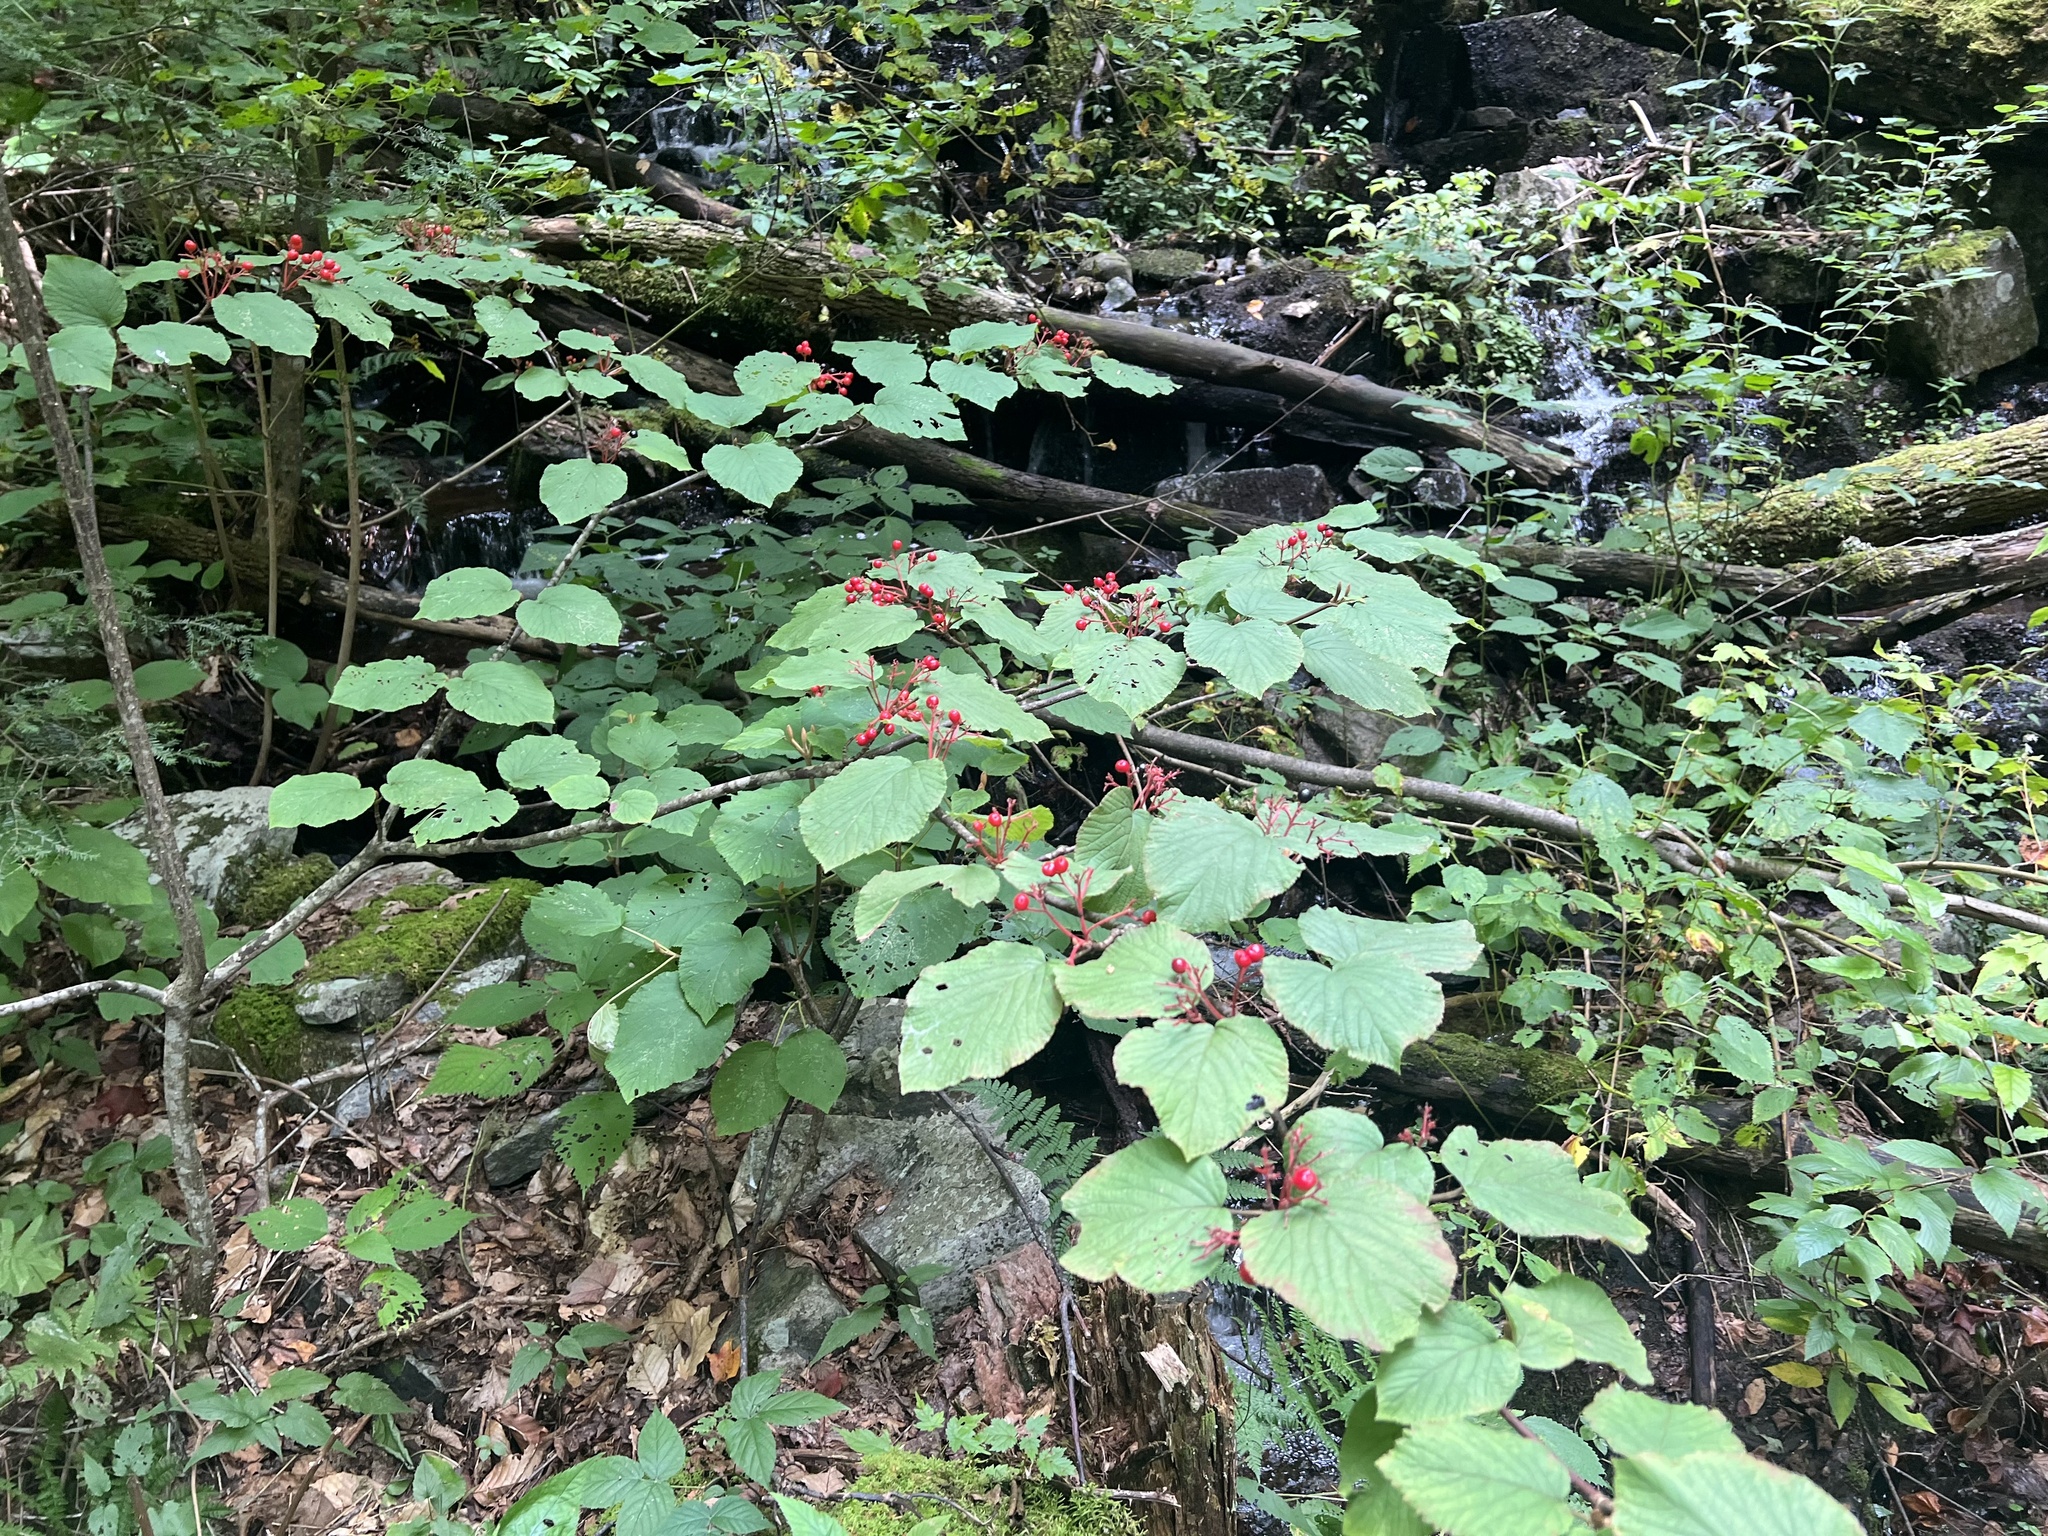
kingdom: Plantae
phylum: Tracheophyta
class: Magnoliopsida
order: Dipsacales
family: Viburnaceae
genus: Viburnum
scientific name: Viburnum lantanoides
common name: Hobblebush
